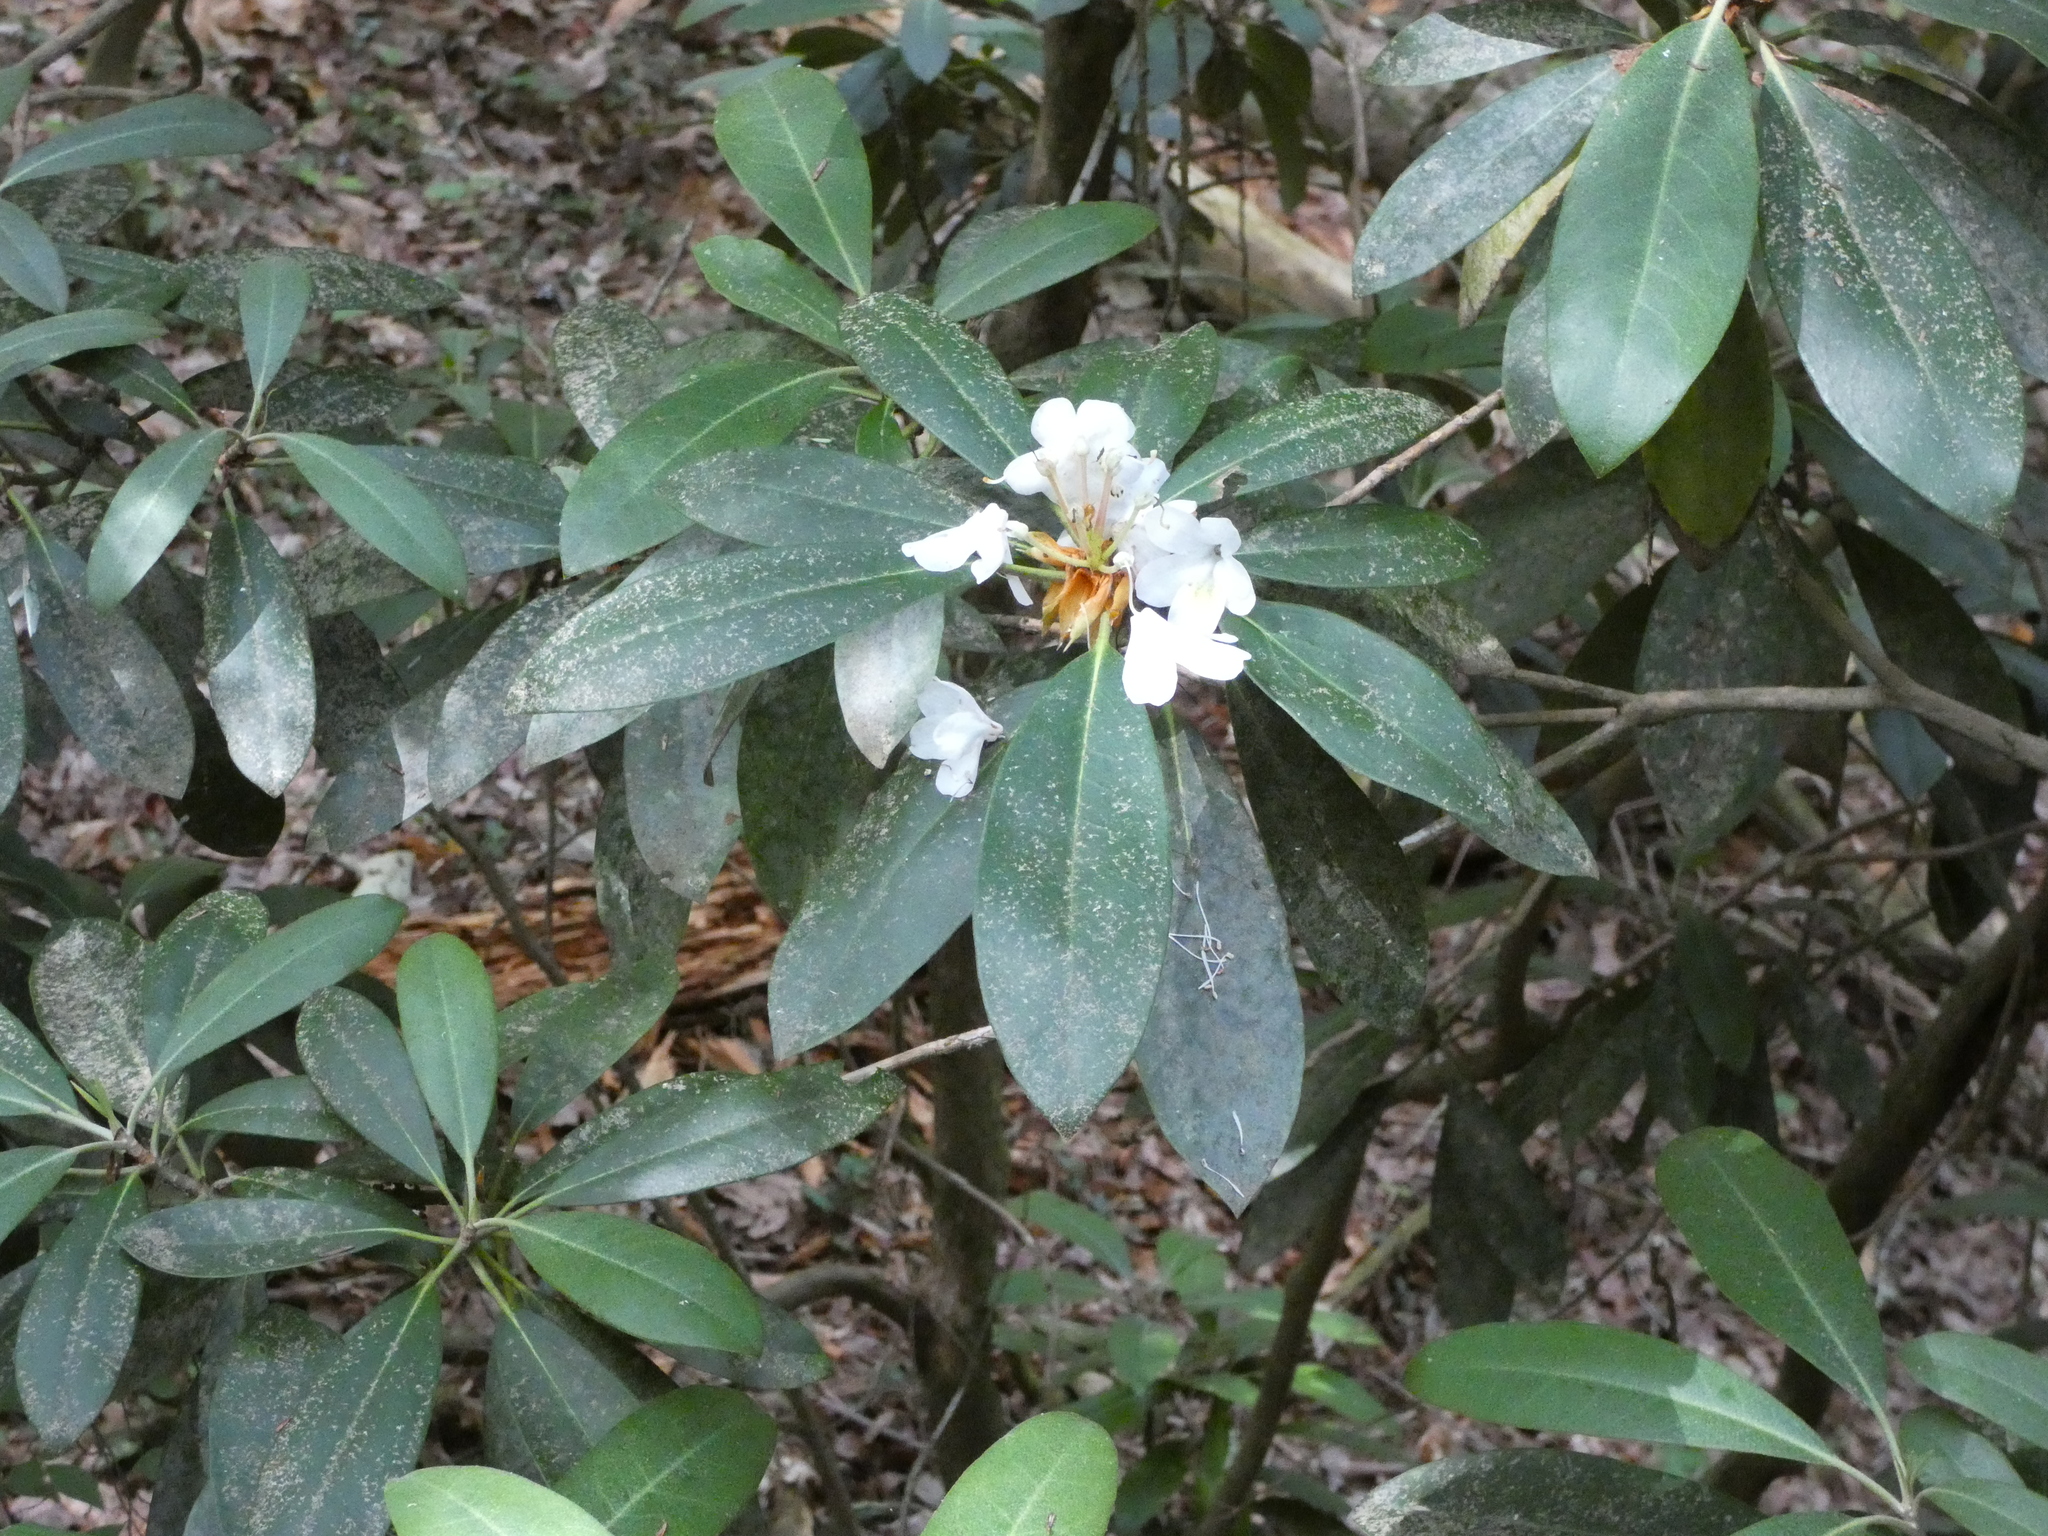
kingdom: Plantae
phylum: Tracheophyta
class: Magnoliopsida
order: Ericales
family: Ericaceae
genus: Rhododendron
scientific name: Rhododendron maximum
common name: Great rhododendron
